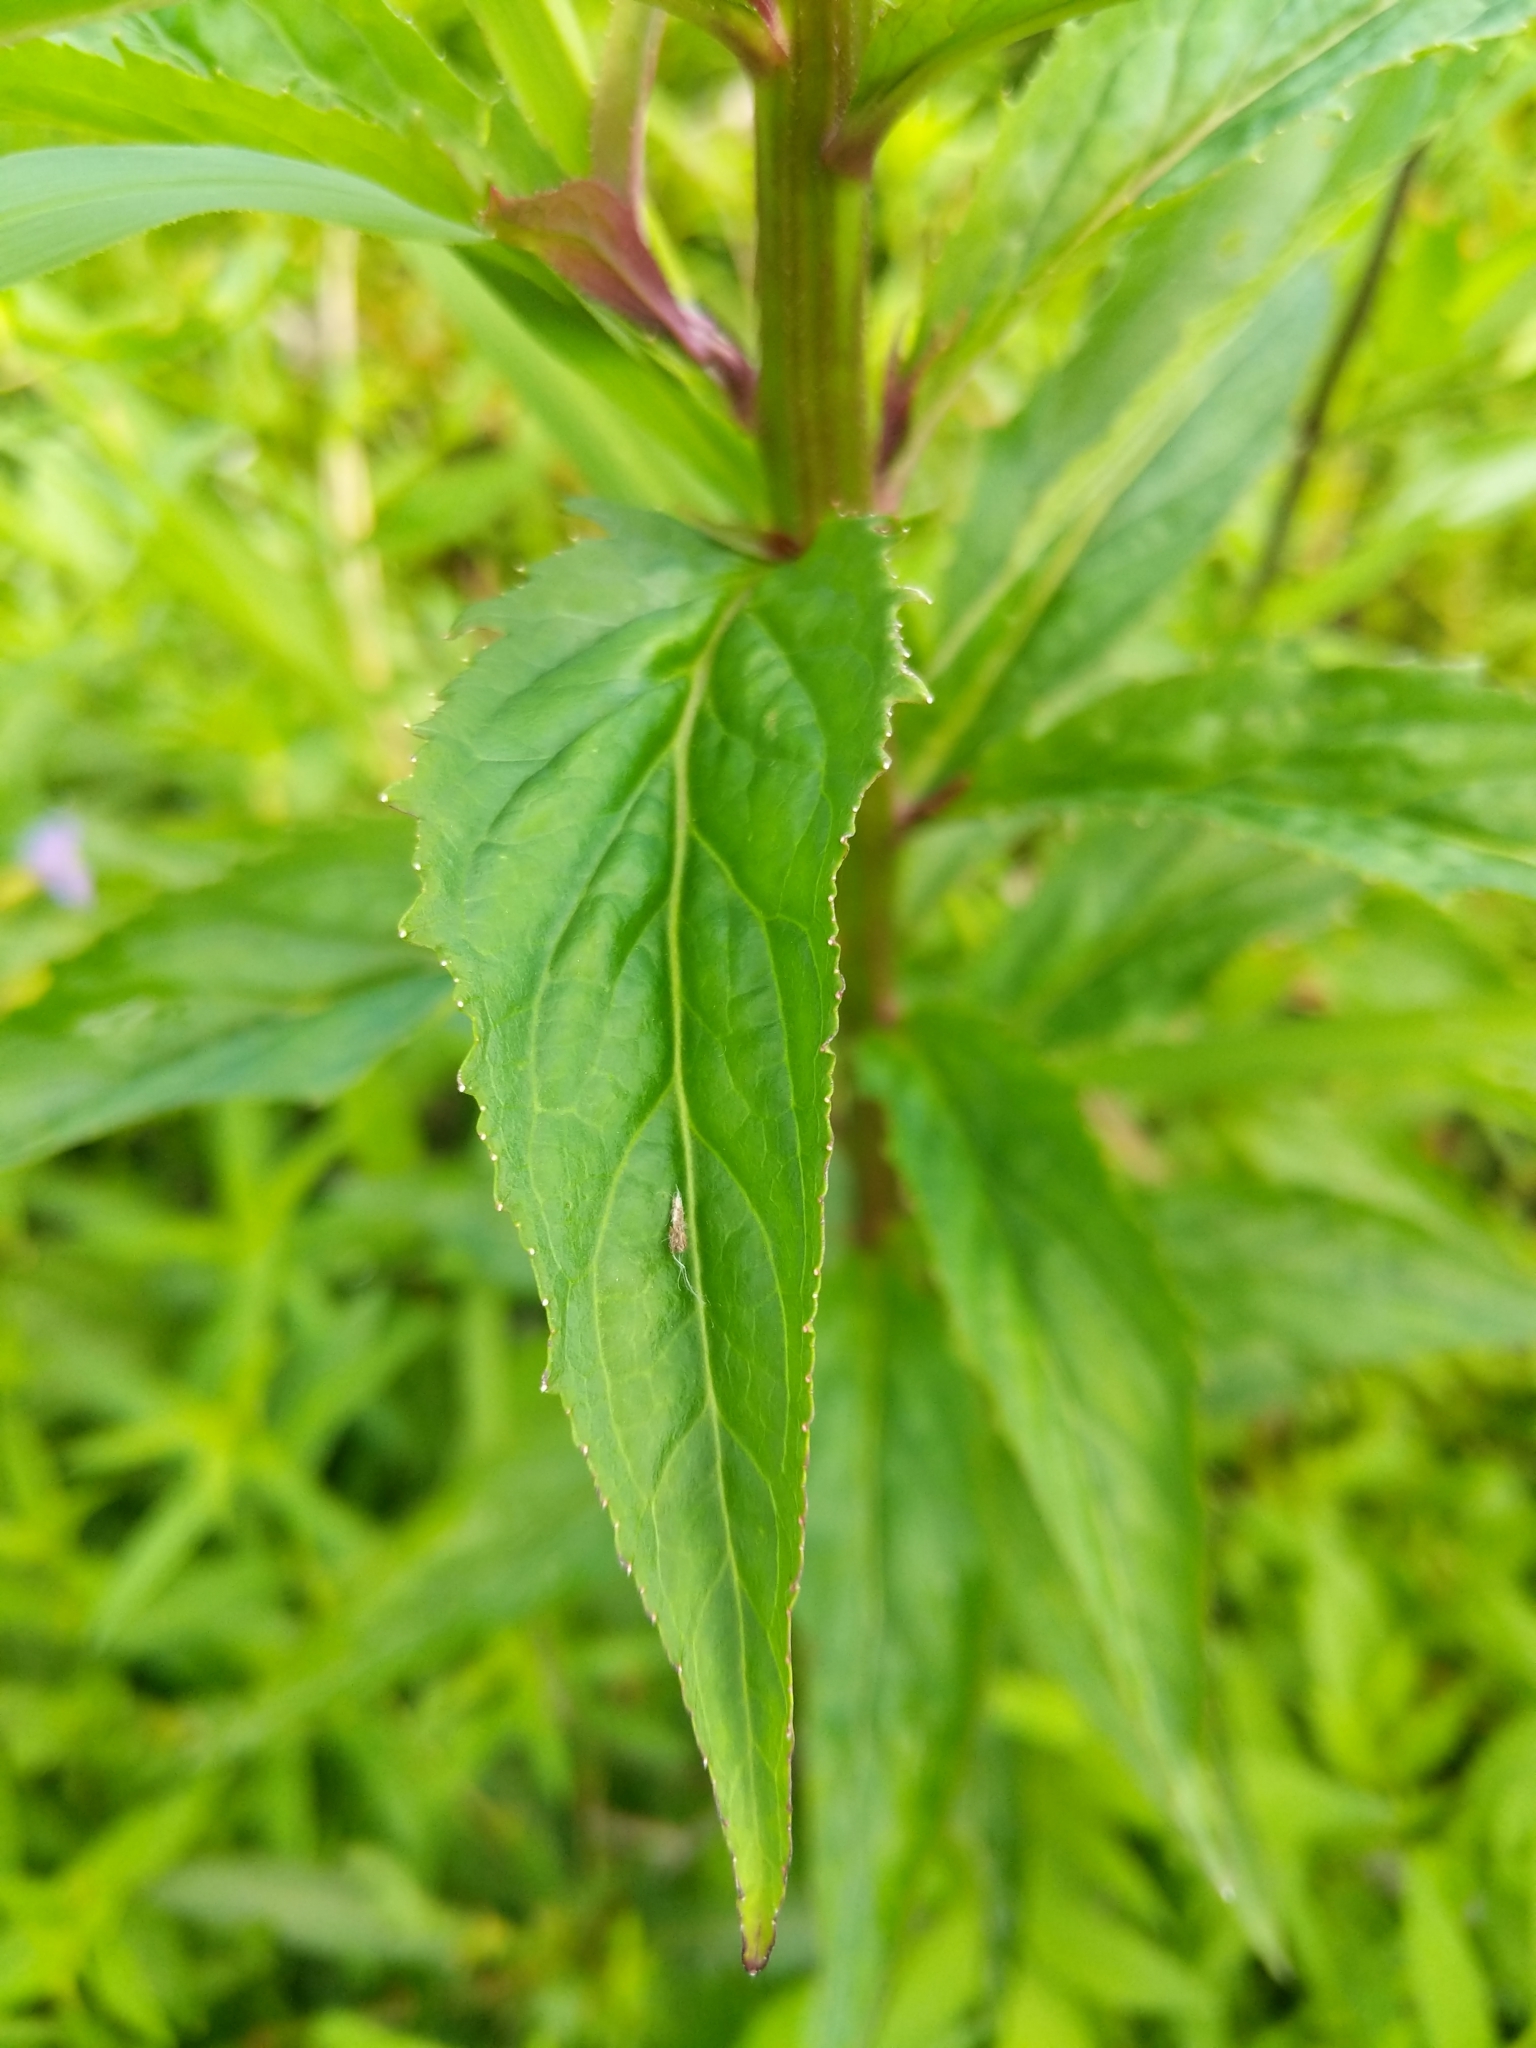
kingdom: Plantae
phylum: Tracheophyta
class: Magnoliopsida
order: Asterales
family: Campanulaceae
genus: Lobelia
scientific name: Lobelia cardinalis
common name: Cardinal flower
